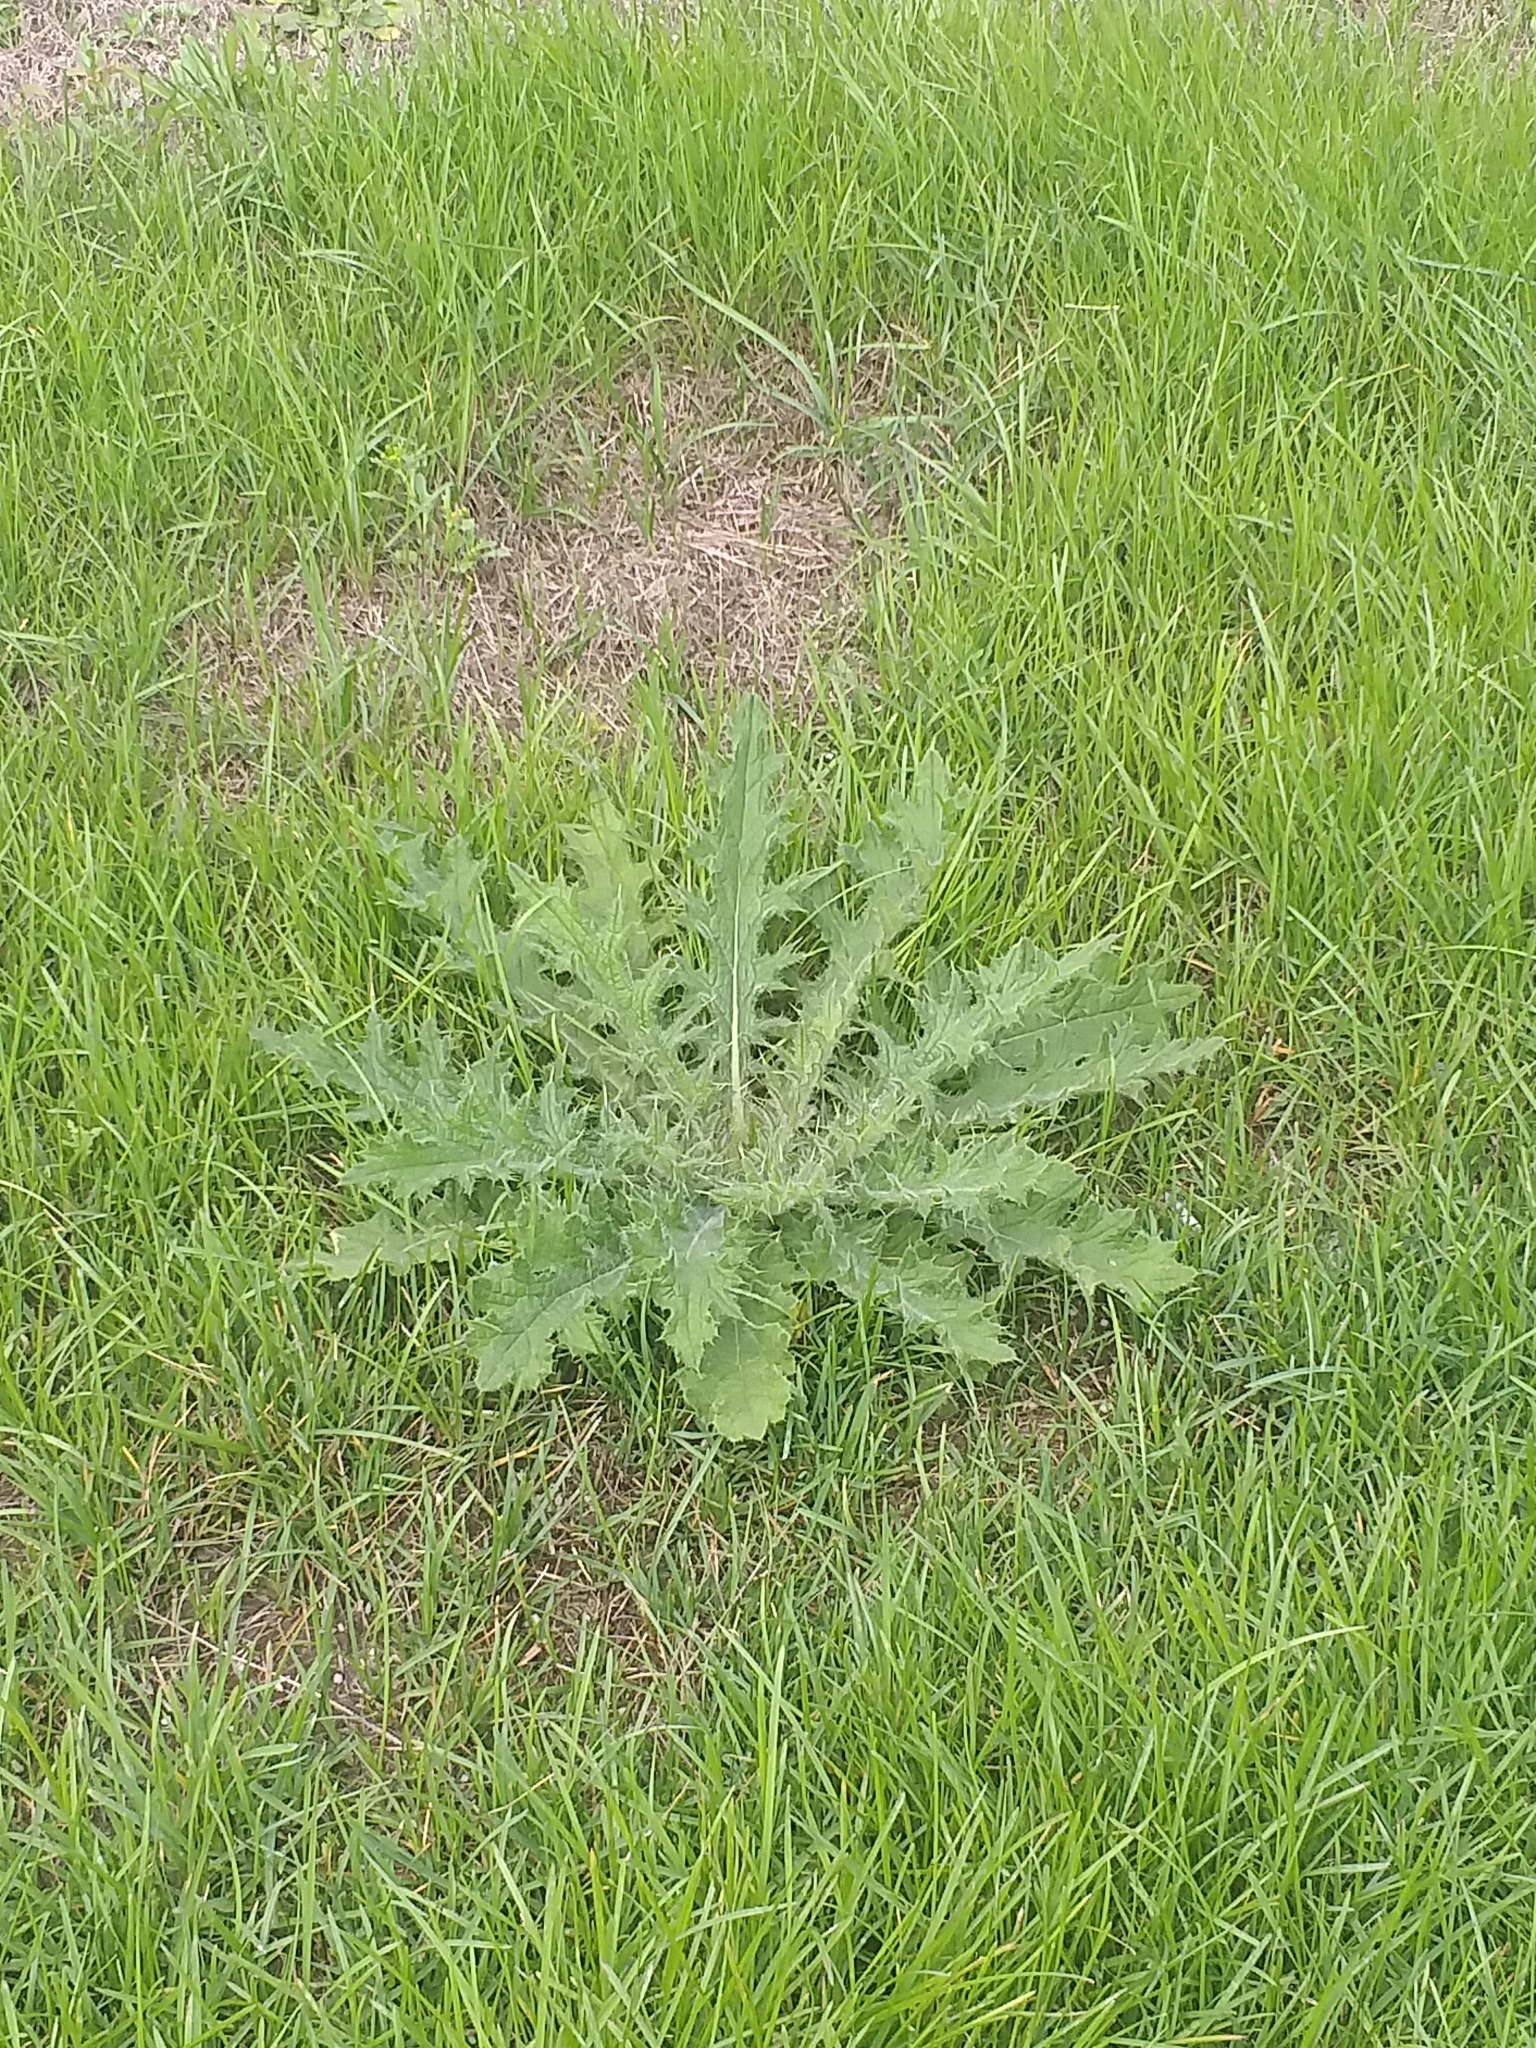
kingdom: Plantae
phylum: Tracheophyta
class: Magnoliopsida
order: Asterales
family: Asteraceae
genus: Cirsium
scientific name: Cirsium vulgare
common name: Bull thistle
